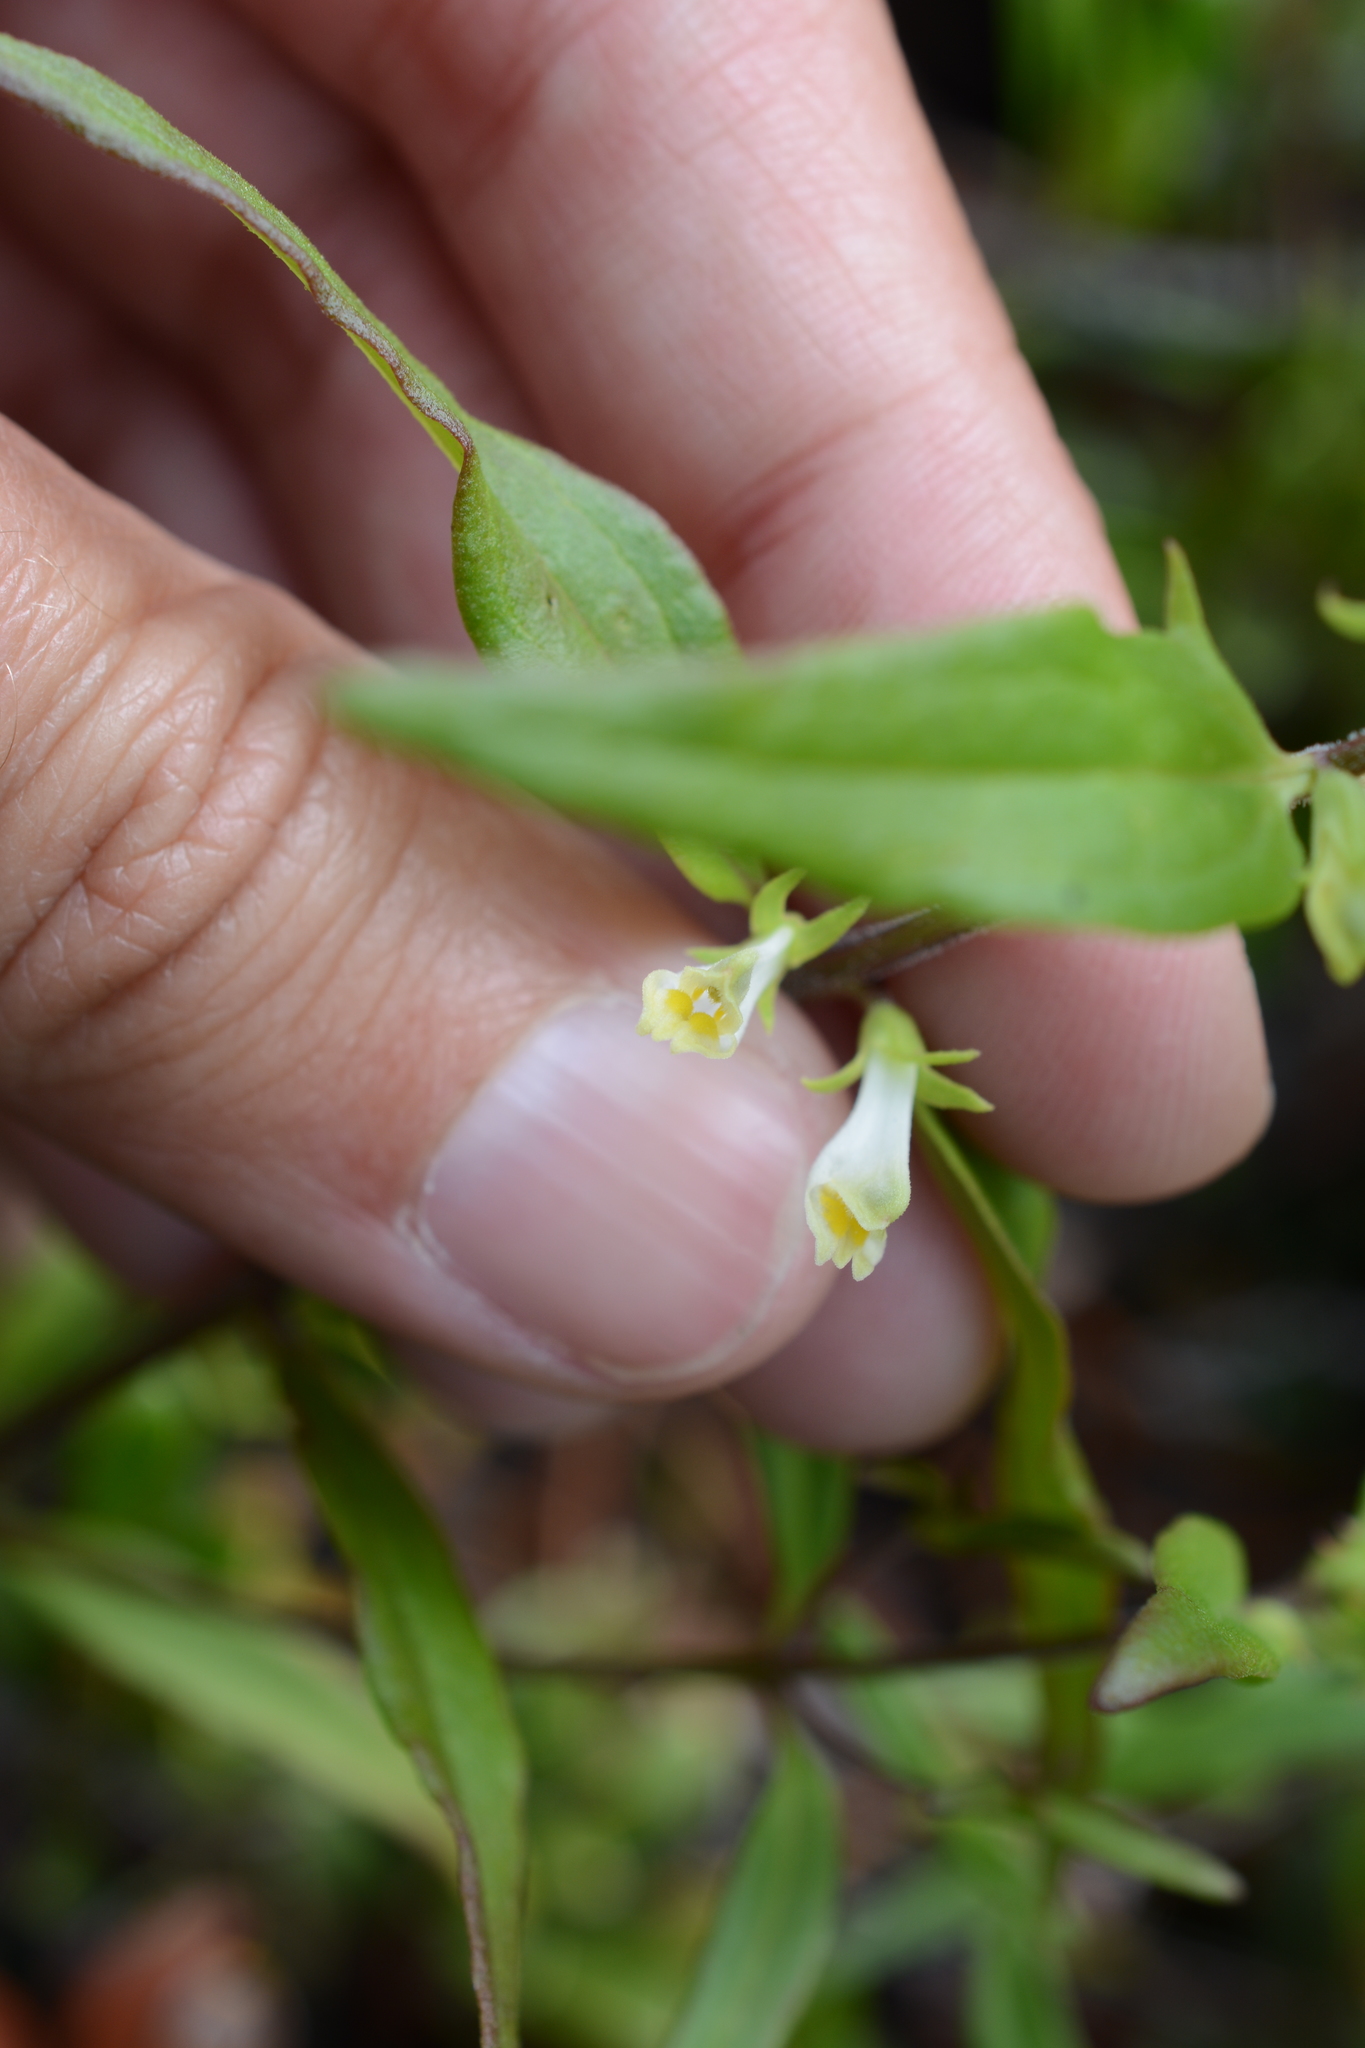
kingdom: Plantae
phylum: Tracheophyta
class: Magnoliopsida
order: Lamiales
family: Orobanchaceae
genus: Melampyrum
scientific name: Melampyrum lineare
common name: American cow-wheat
